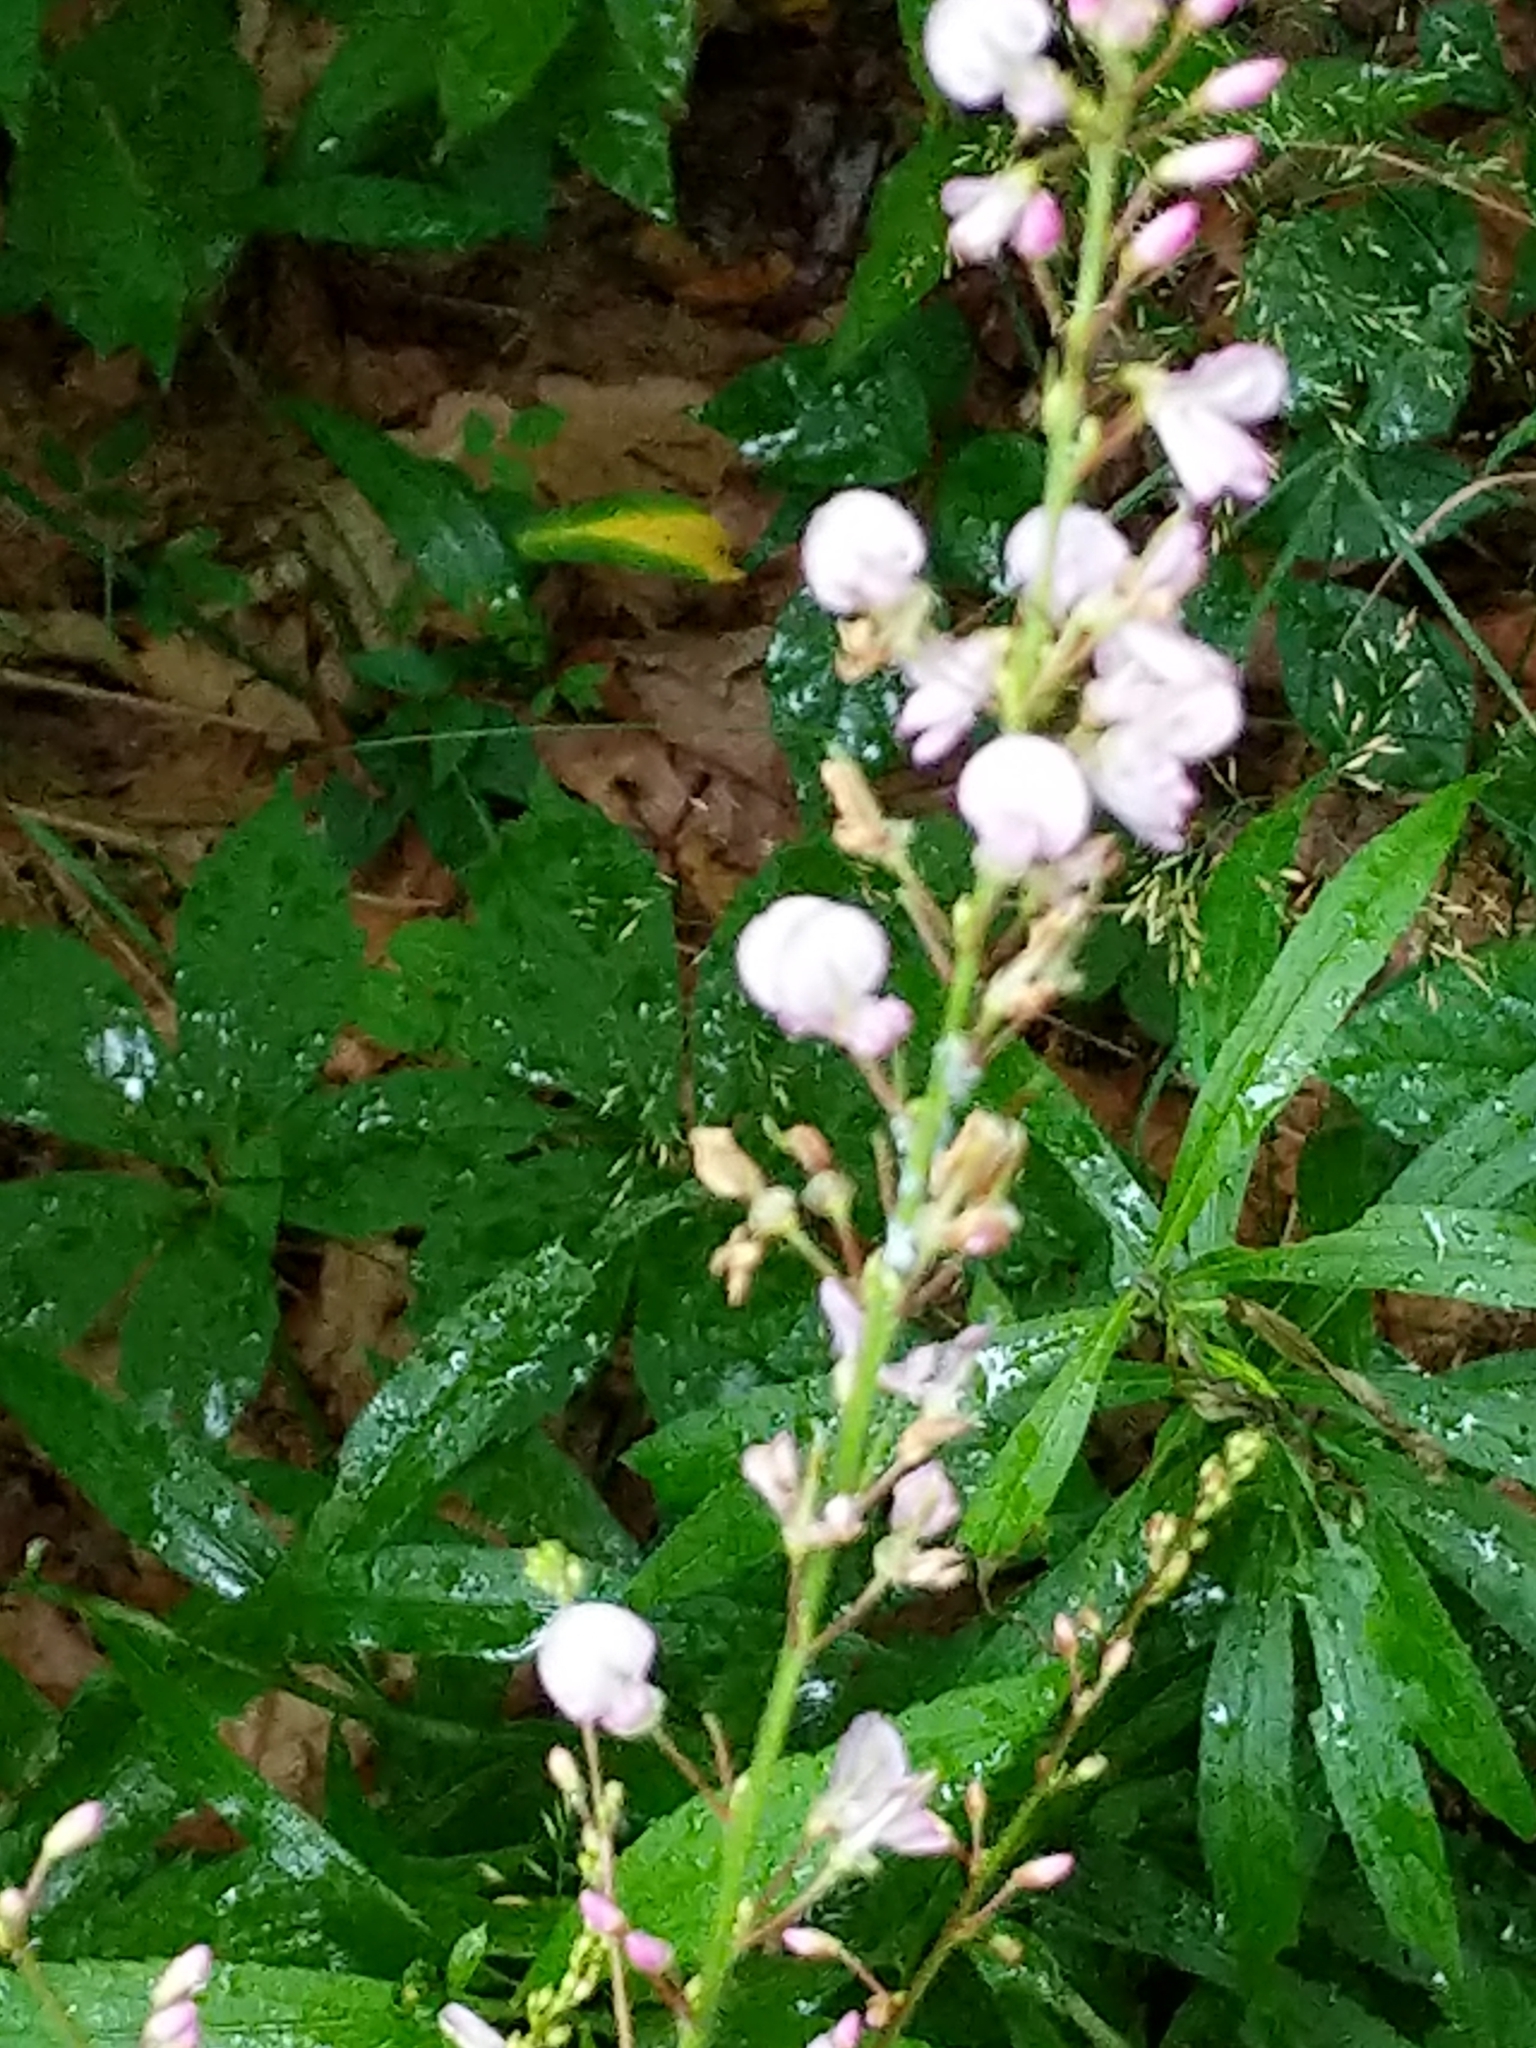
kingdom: Plantae
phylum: Tracheophyta
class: Magnoliopsida
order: Fabales
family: Fabaceae
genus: Hylodesmum
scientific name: Hylodesmum glutinosum
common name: Clustered-leaved tick-trefoil
